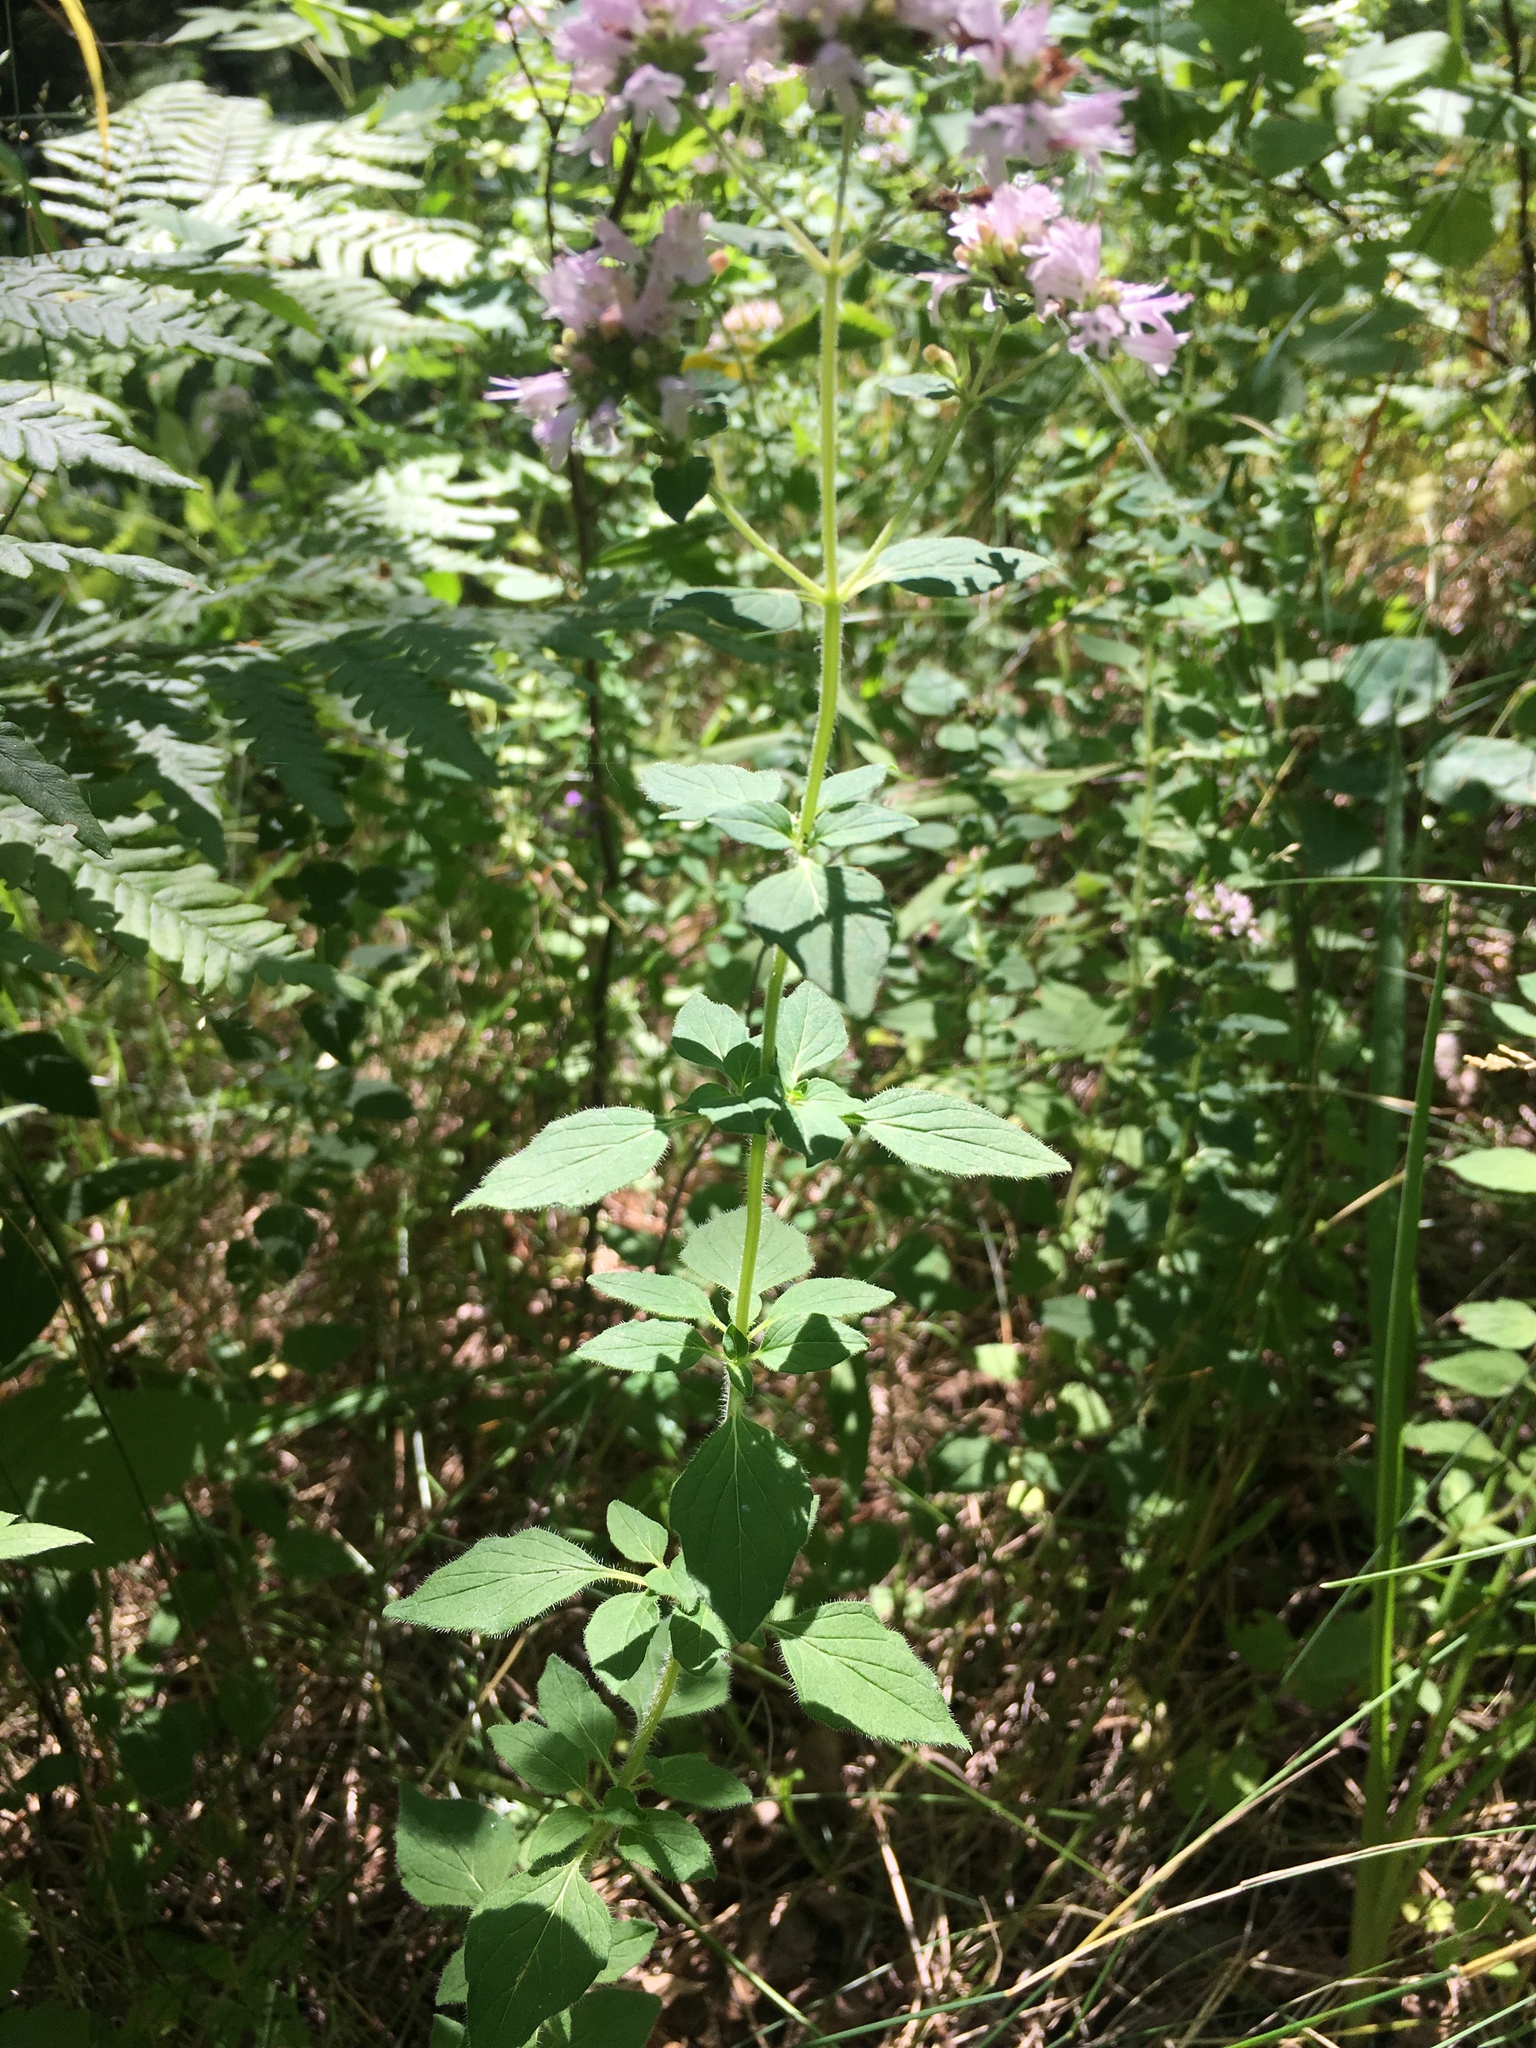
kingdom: Plantae
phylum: Tracheophyta
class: Magnoliopsida
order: Lamiales
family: Lamiaceae
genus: Origanum
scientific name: Origanum vulgare
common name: Wild marjoram
